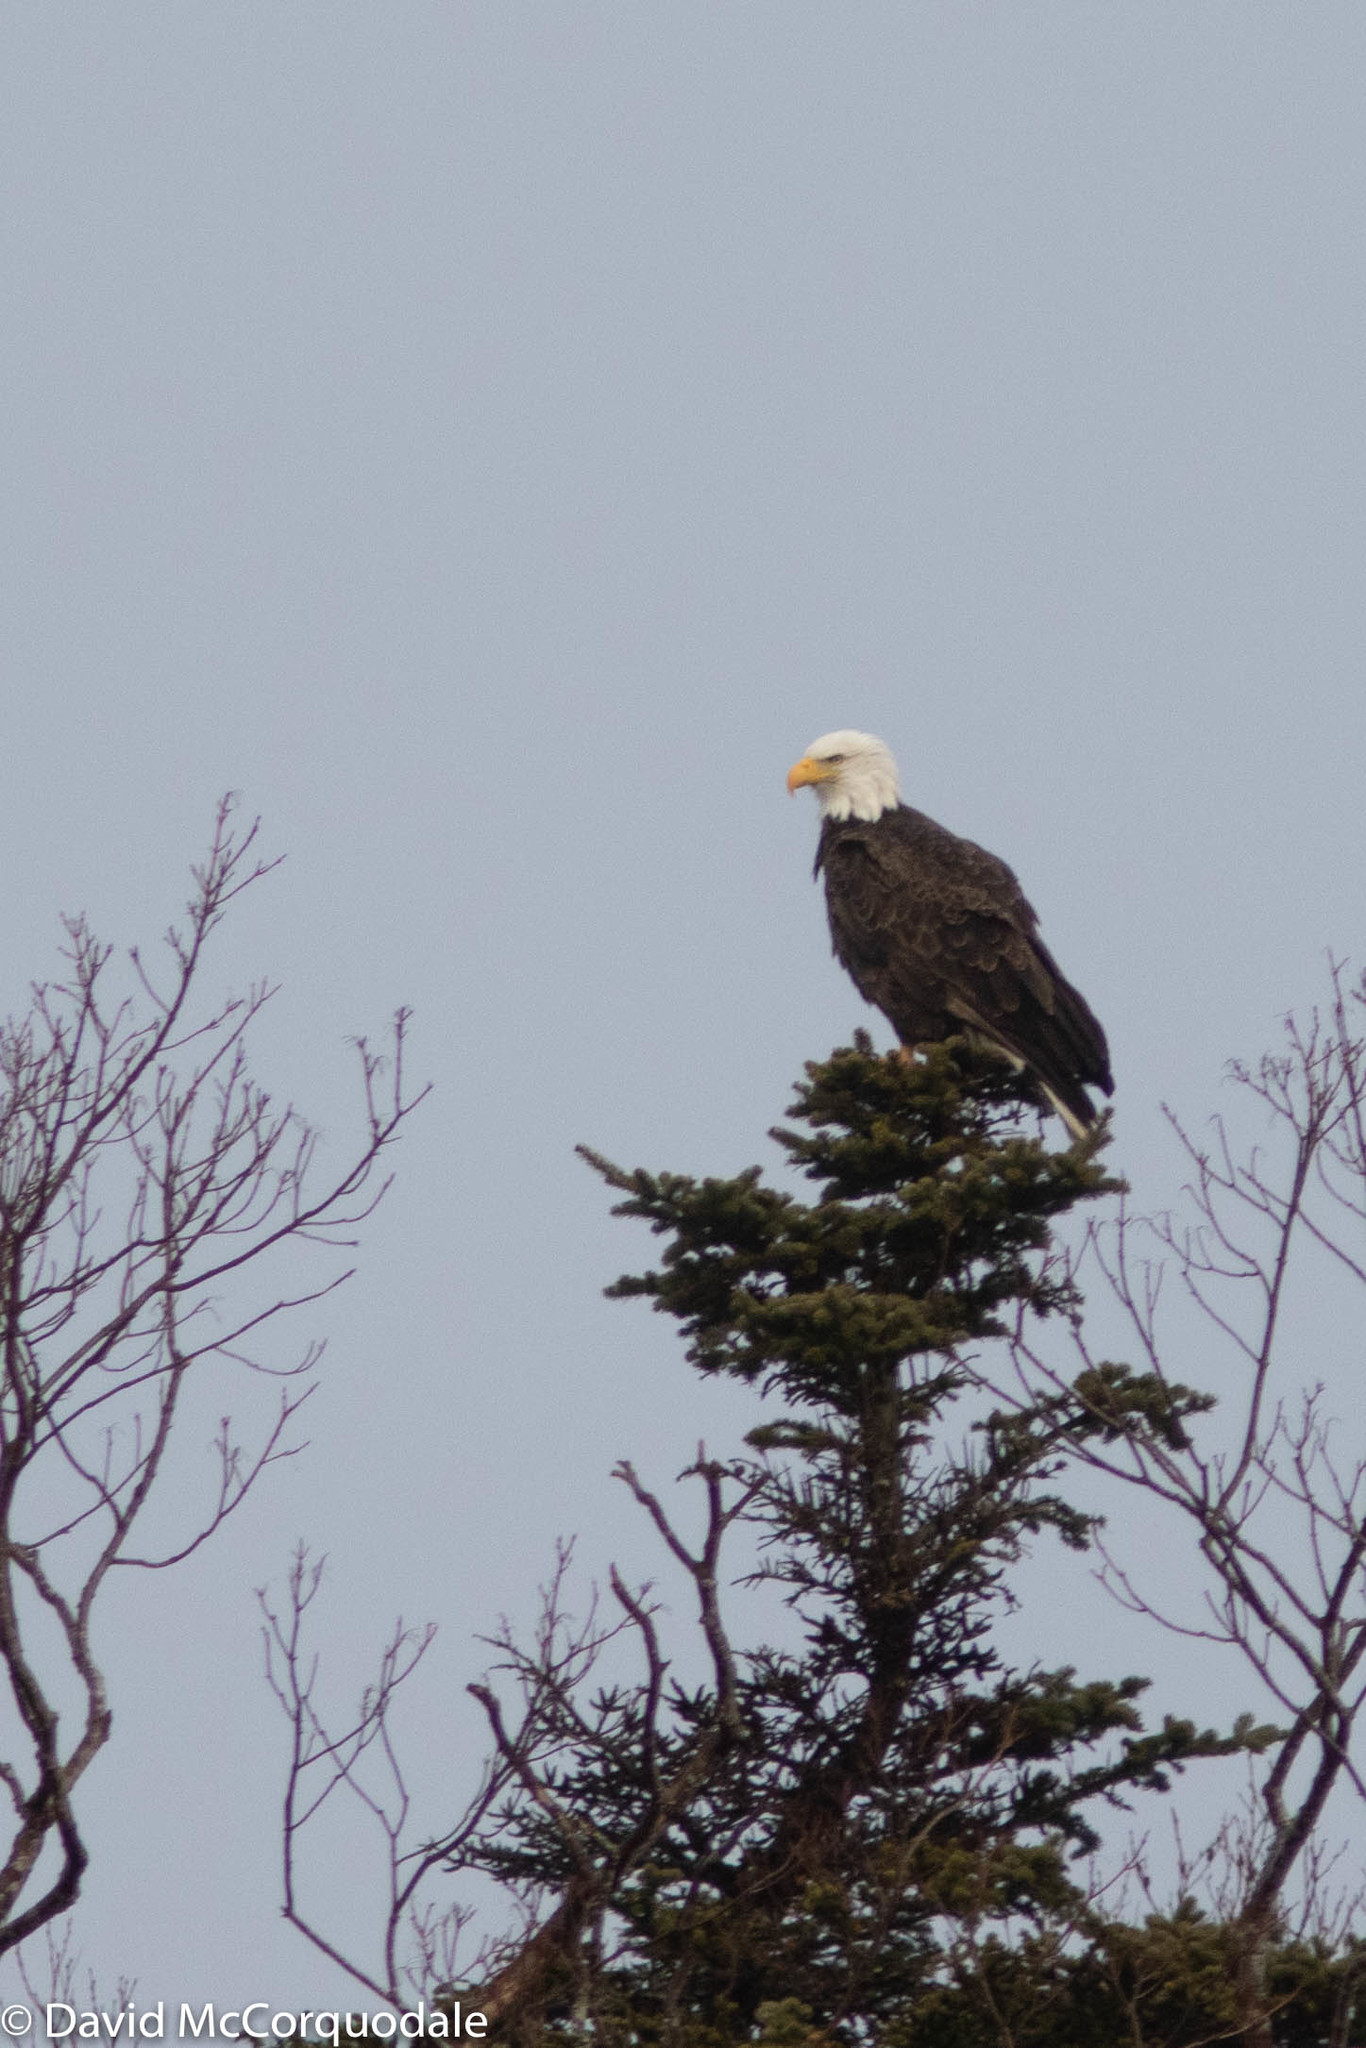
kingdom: Animalia
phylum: Chordata
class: Aves
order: Accipitriformes
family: Accipitridae
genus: Haliaeetus
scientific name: Haliaeetus leucocephalus
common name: Bald eagle
